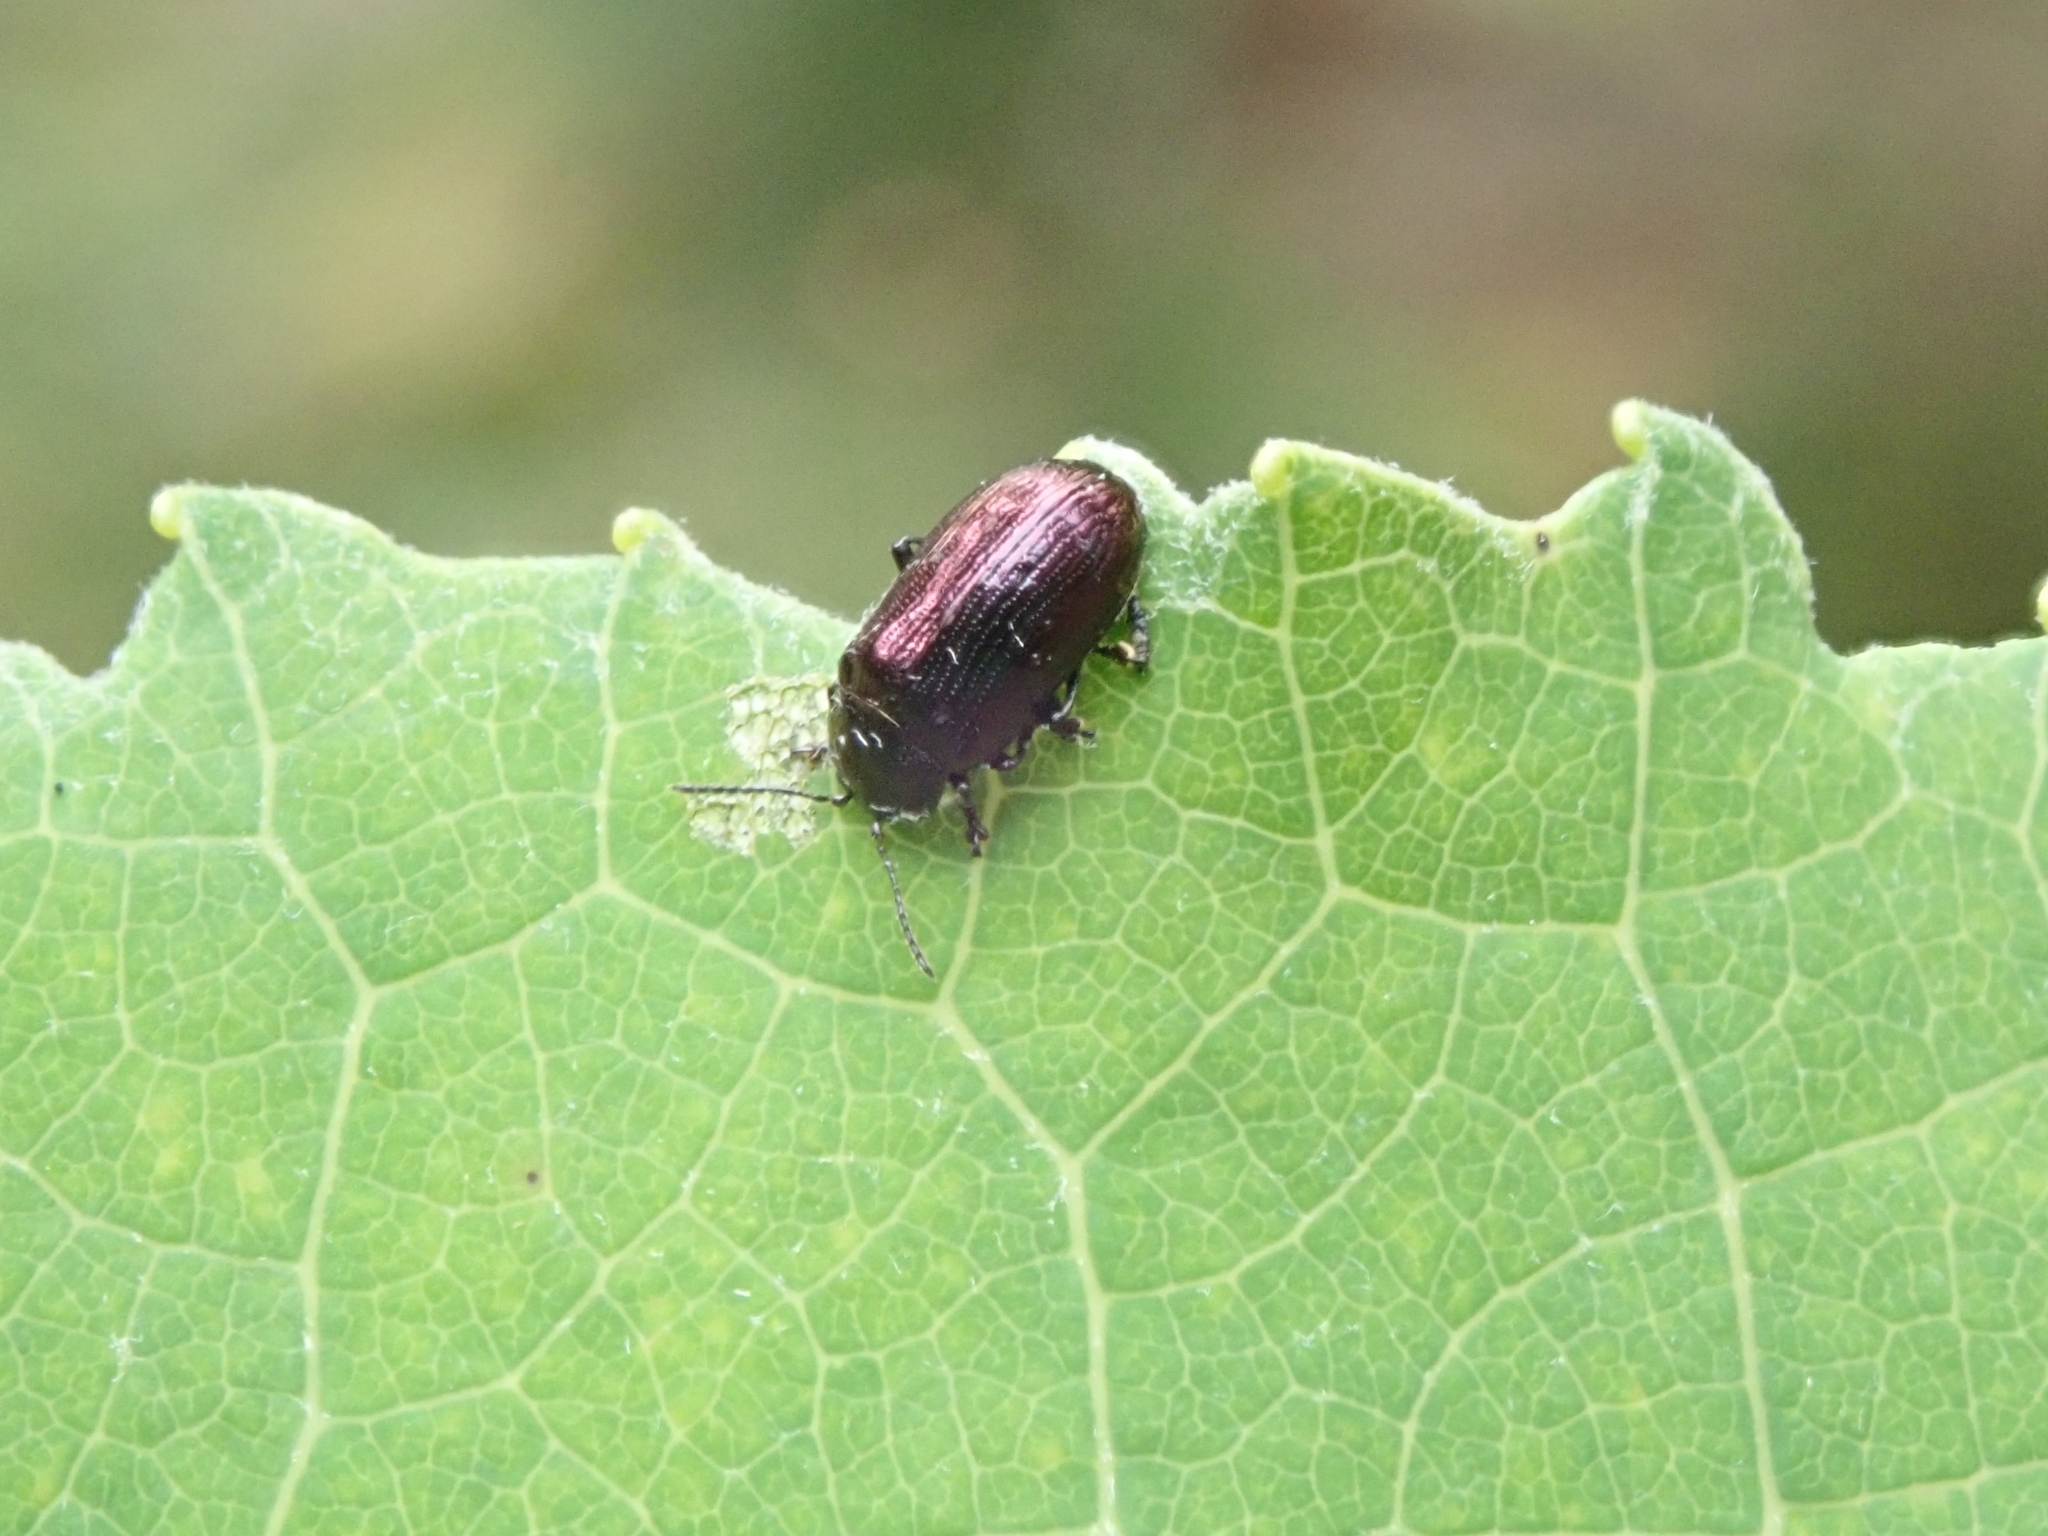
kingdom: Animalia
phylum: Arthropoda
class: Insecta
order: Coleoptera
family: Chrysomelidae
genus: Phratora
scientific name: Phratora purpurea
